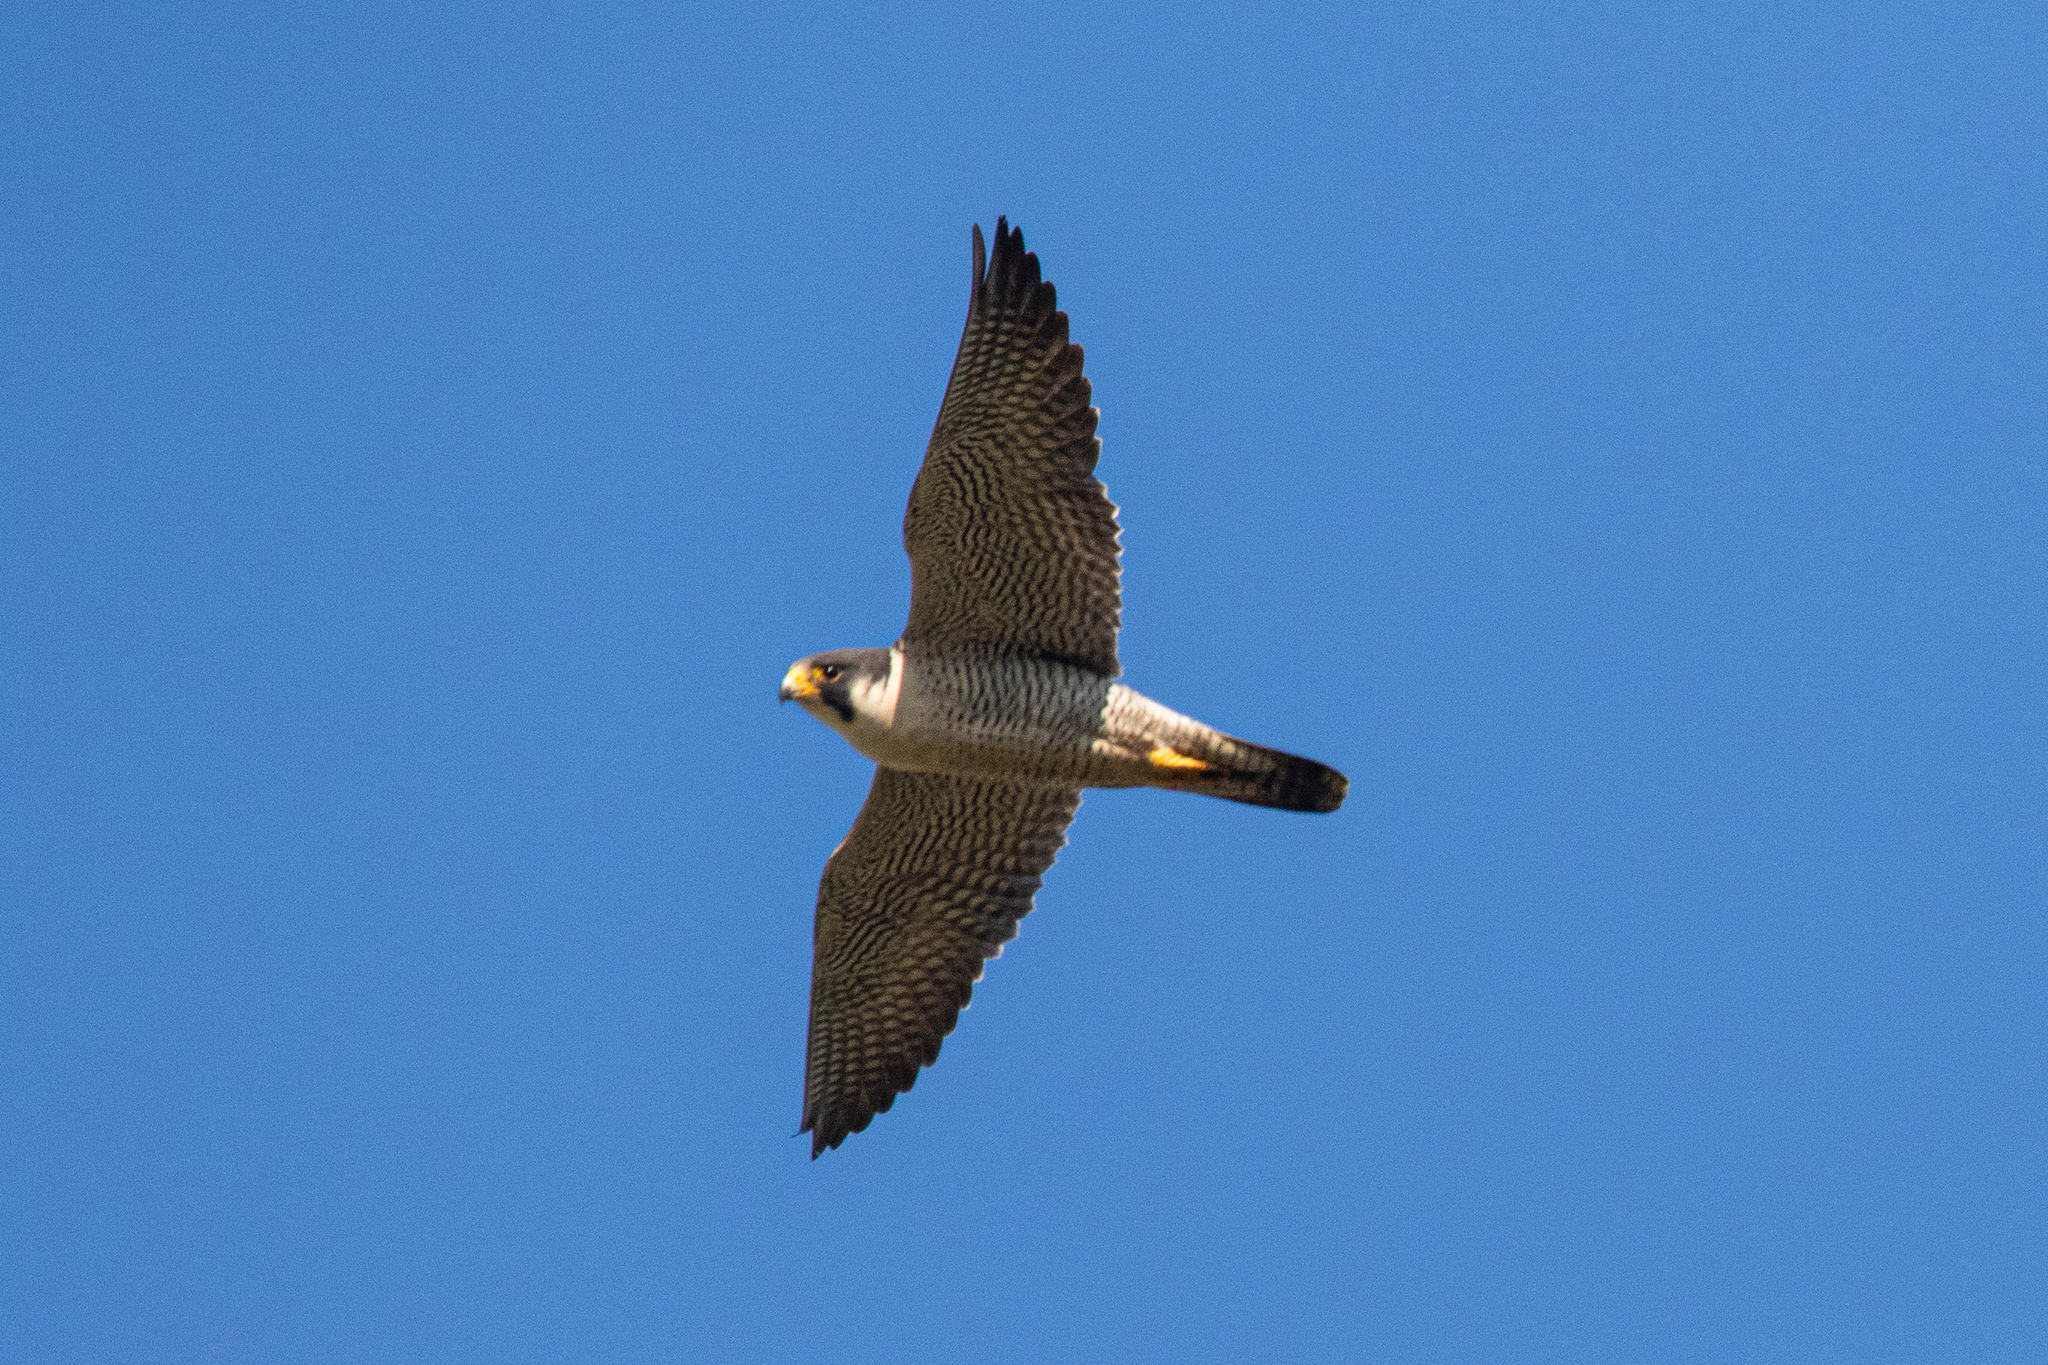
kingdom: Animalia
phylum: Chordata
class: Aves
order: Falconiformes
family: Falconidae
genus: Falco
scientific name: Falco peregrinus
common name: Peregrine falcon
